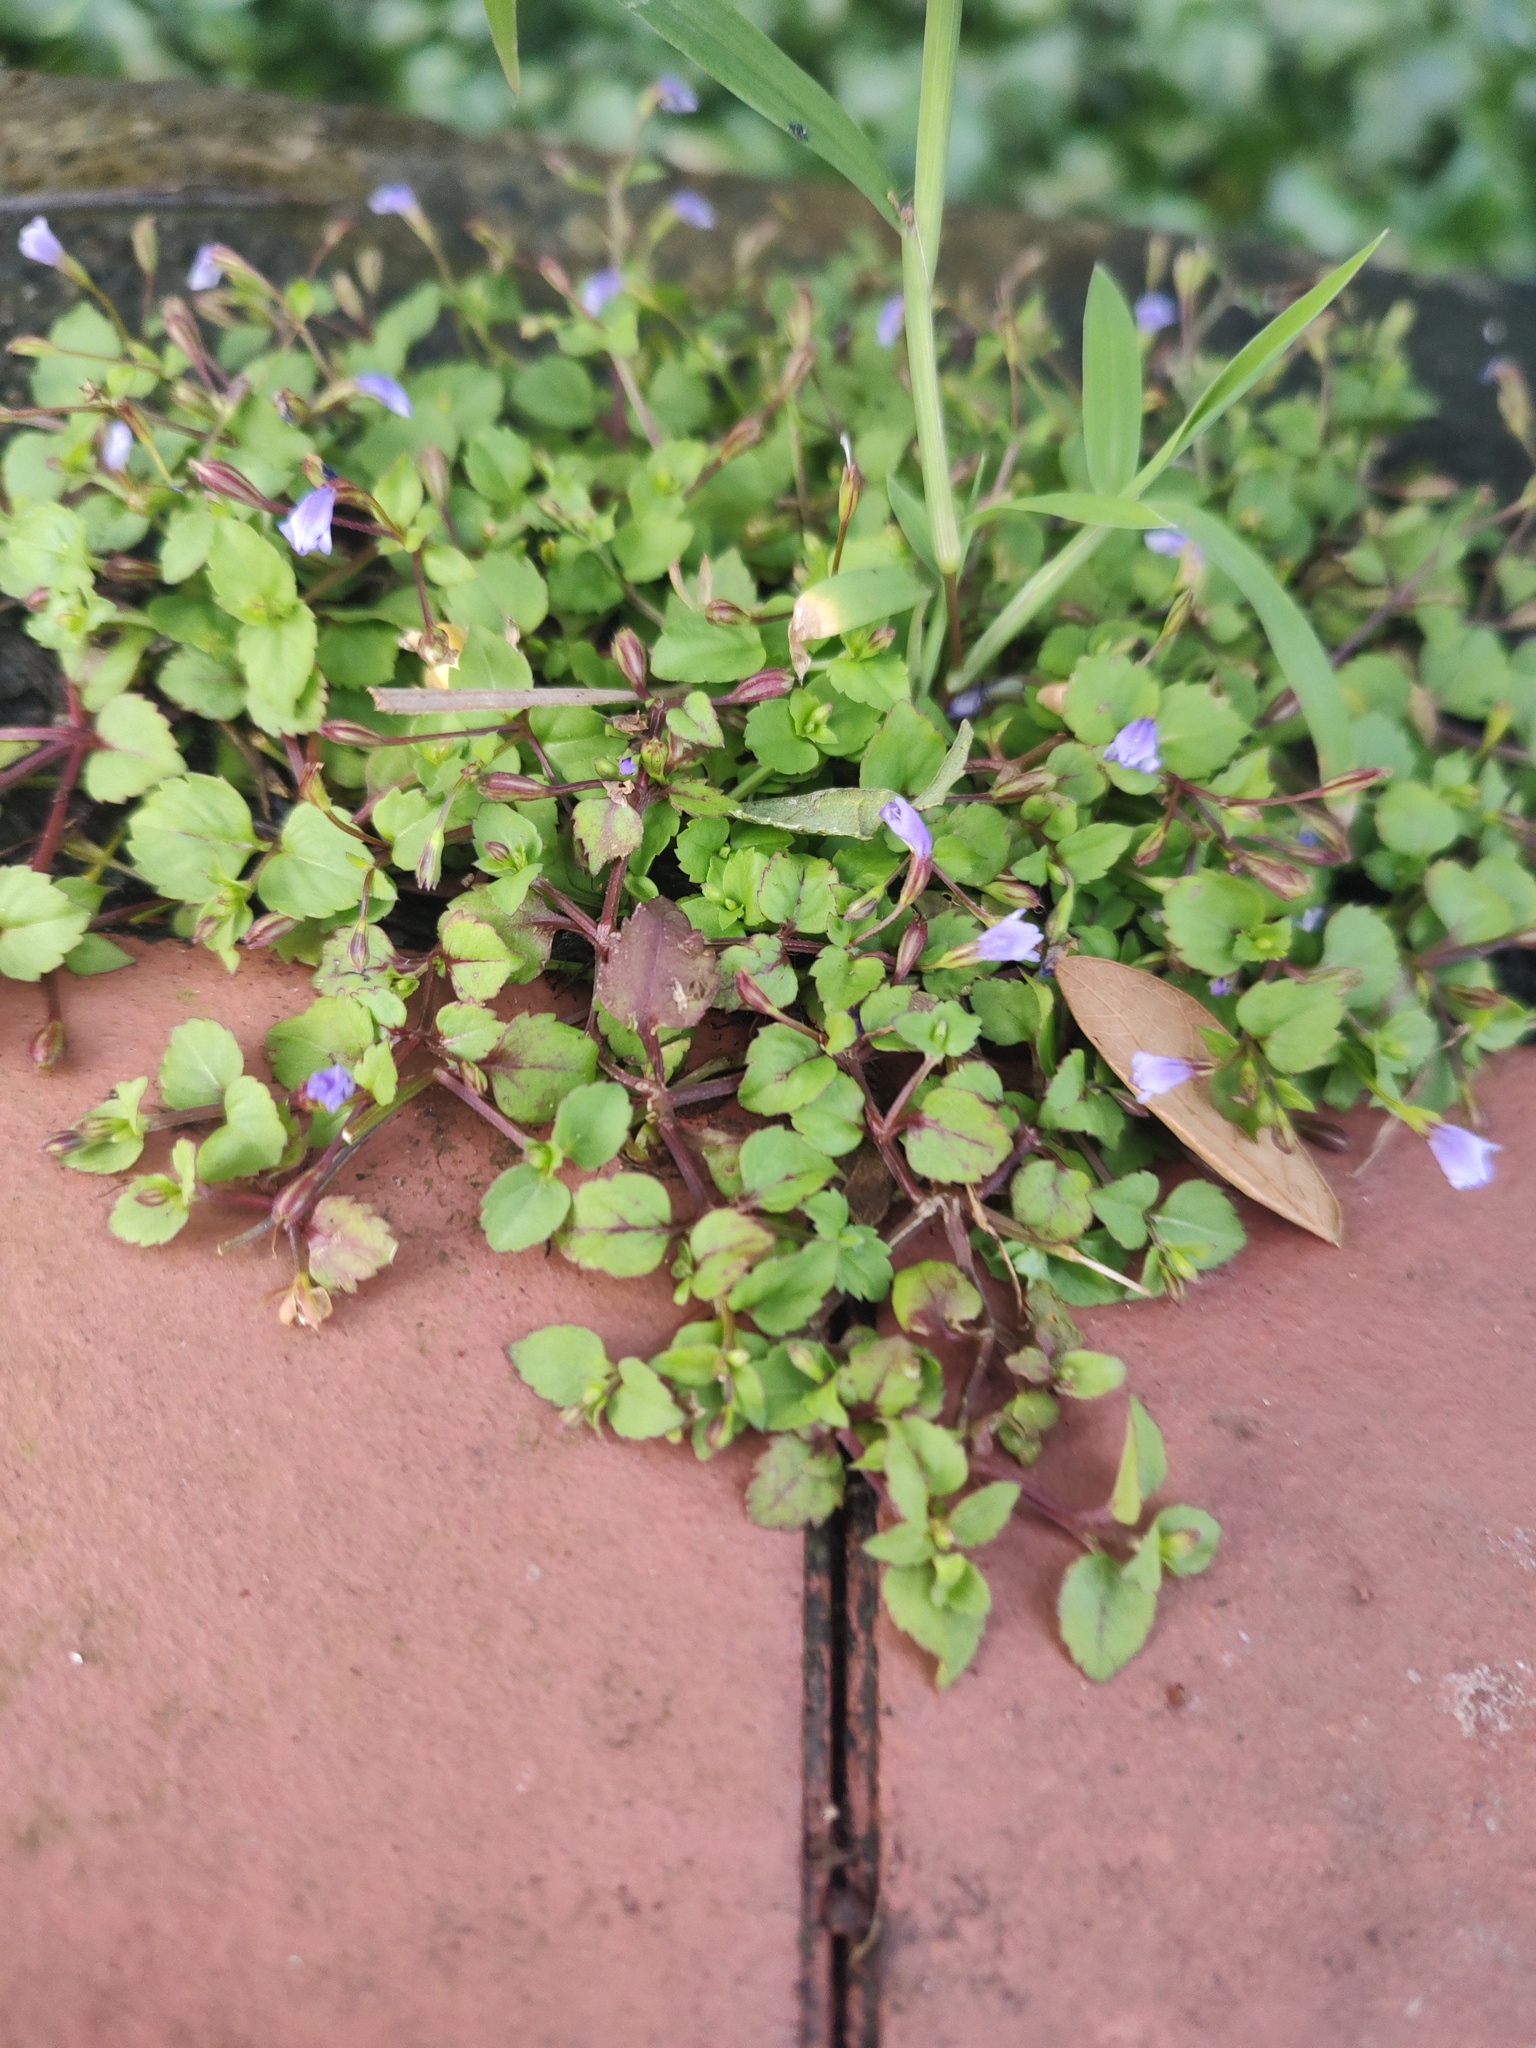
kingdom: Plantae
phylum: Tracheophyta
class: Magnoliopsida
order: Lamiales
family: Linderniaceae
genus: Torenia
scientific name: Torenia crustacea
